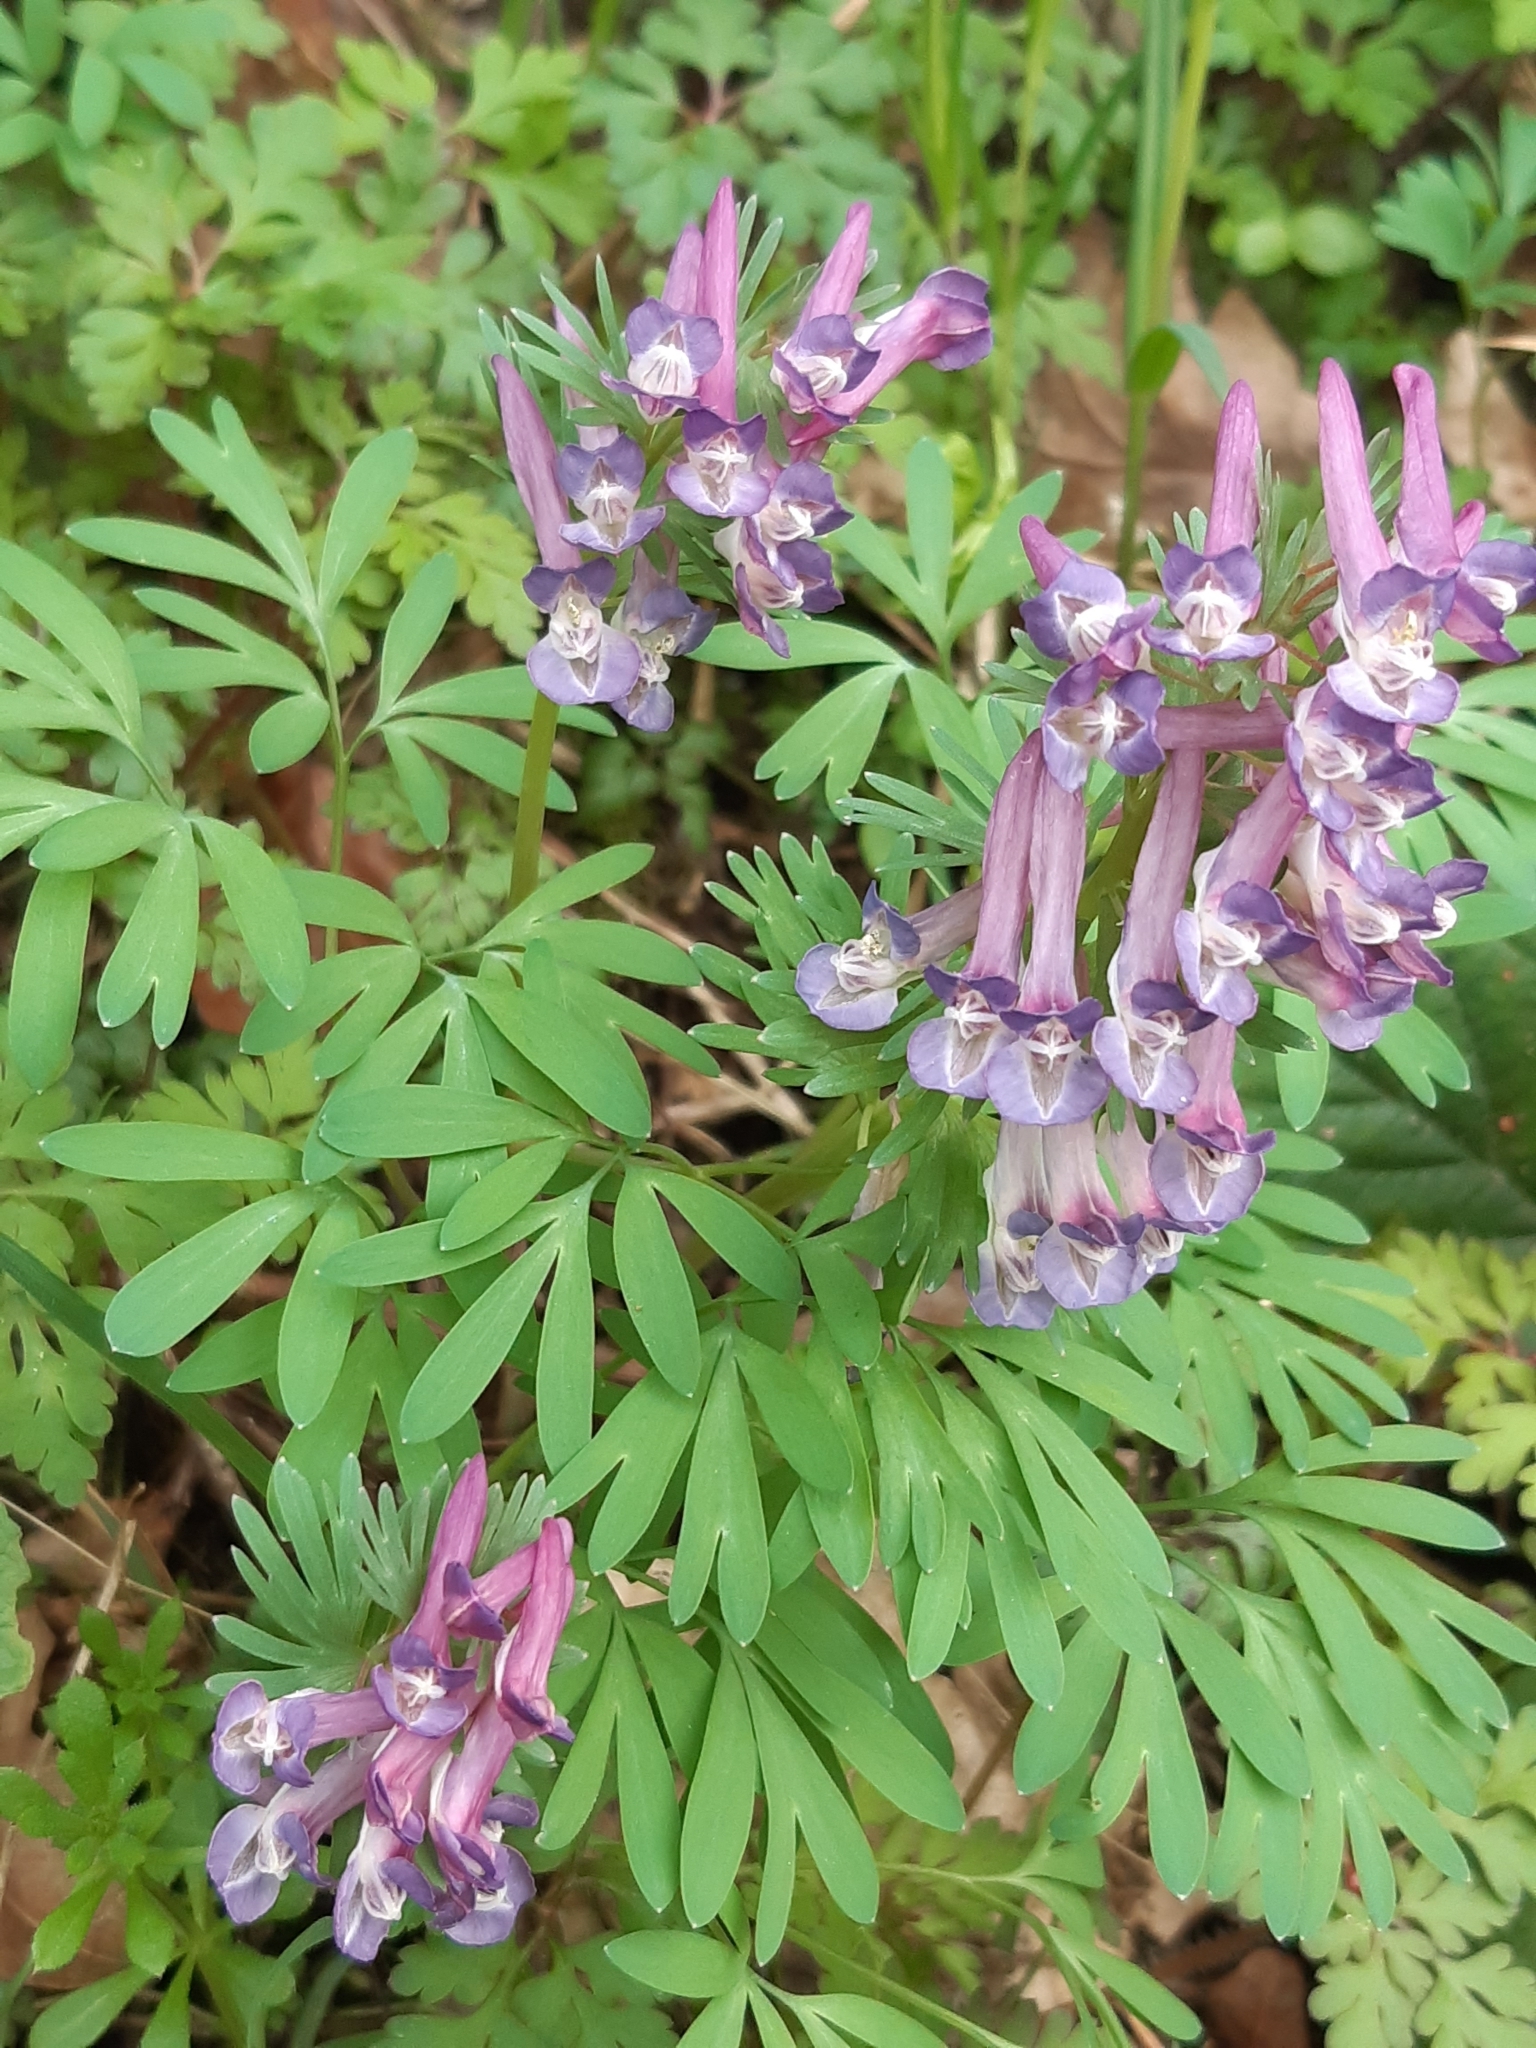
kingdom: Plantae
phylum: Tracheophyta
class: Magnoliopsida
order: Ranunculales
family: Papaveraceae
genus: Corydalis
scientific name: Corydalis solida
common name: Bird-in-a-bush
